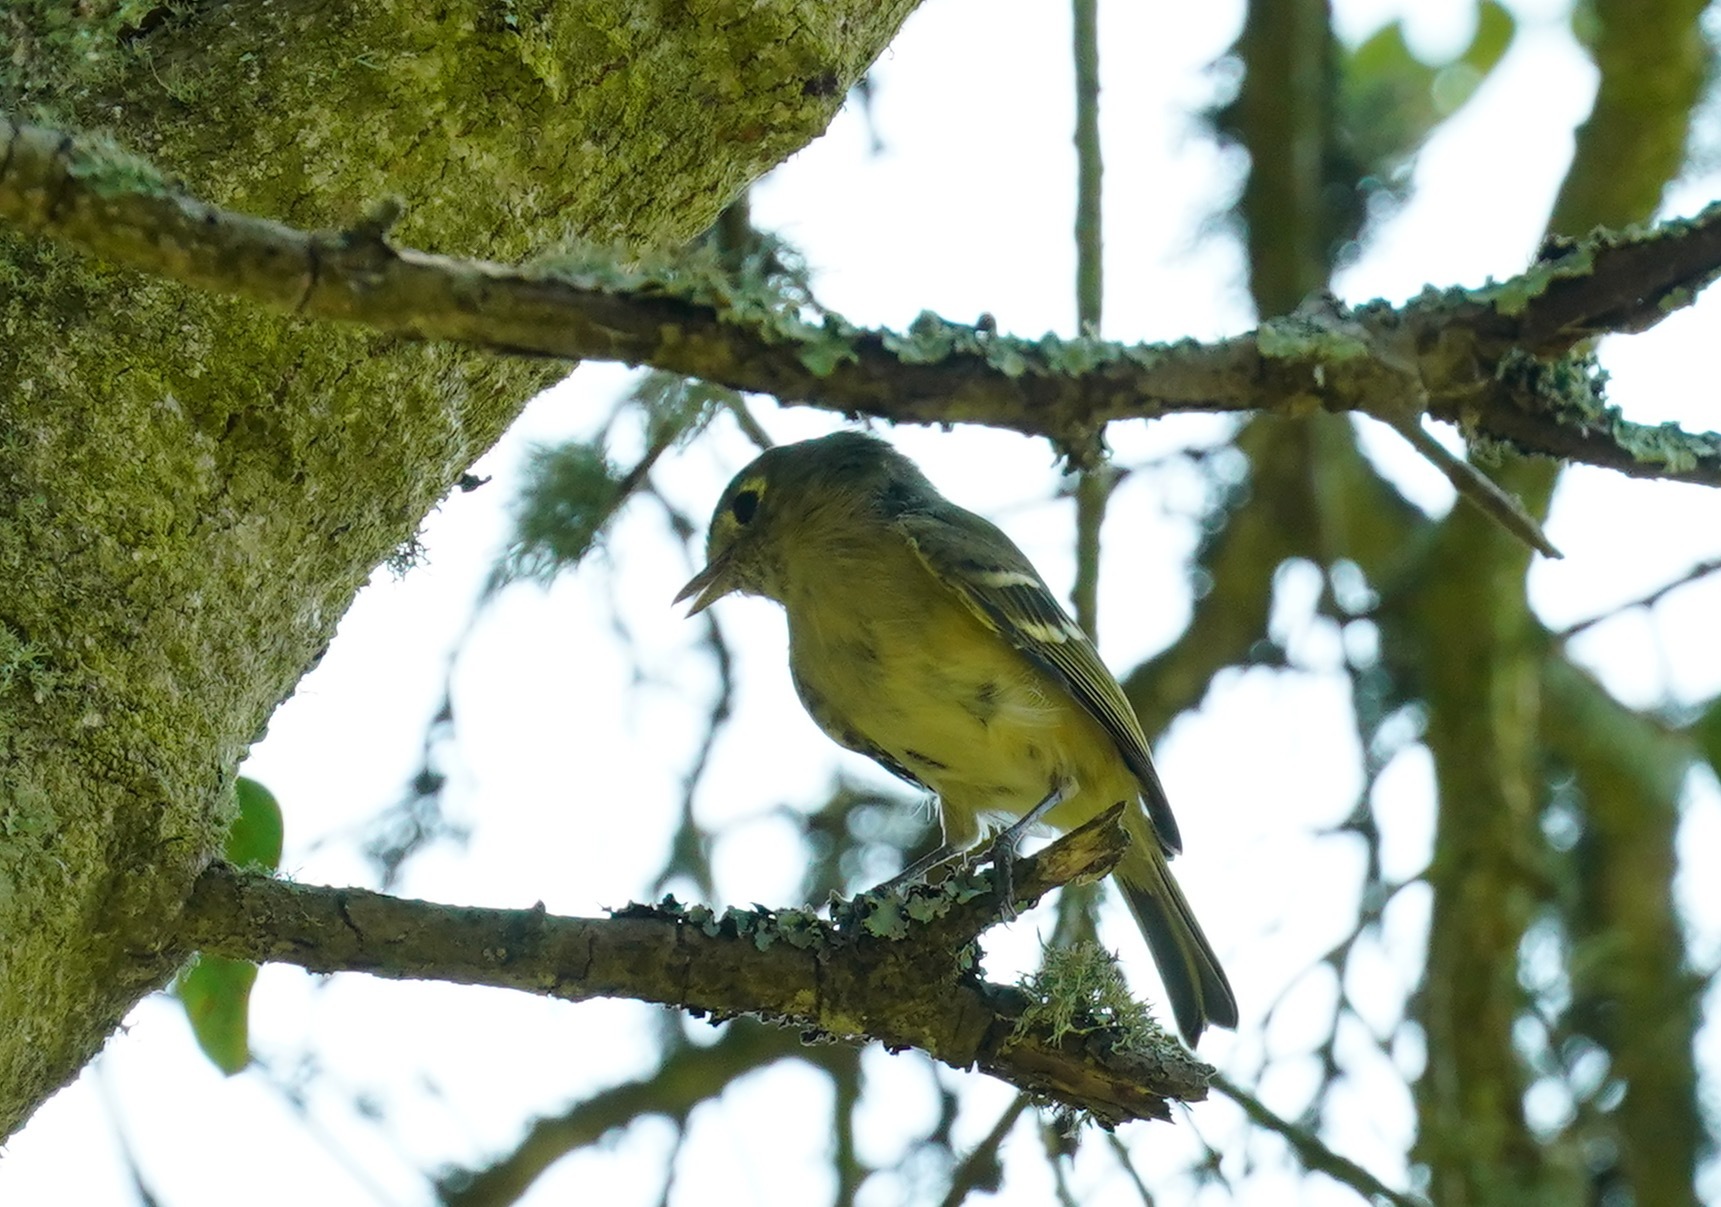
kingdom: Animalia
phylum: Chordata
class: Aves
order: Passeriformes
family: Vireonidae
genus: Vireo
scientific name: Vireo huttoni
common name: Hutton's vireo
